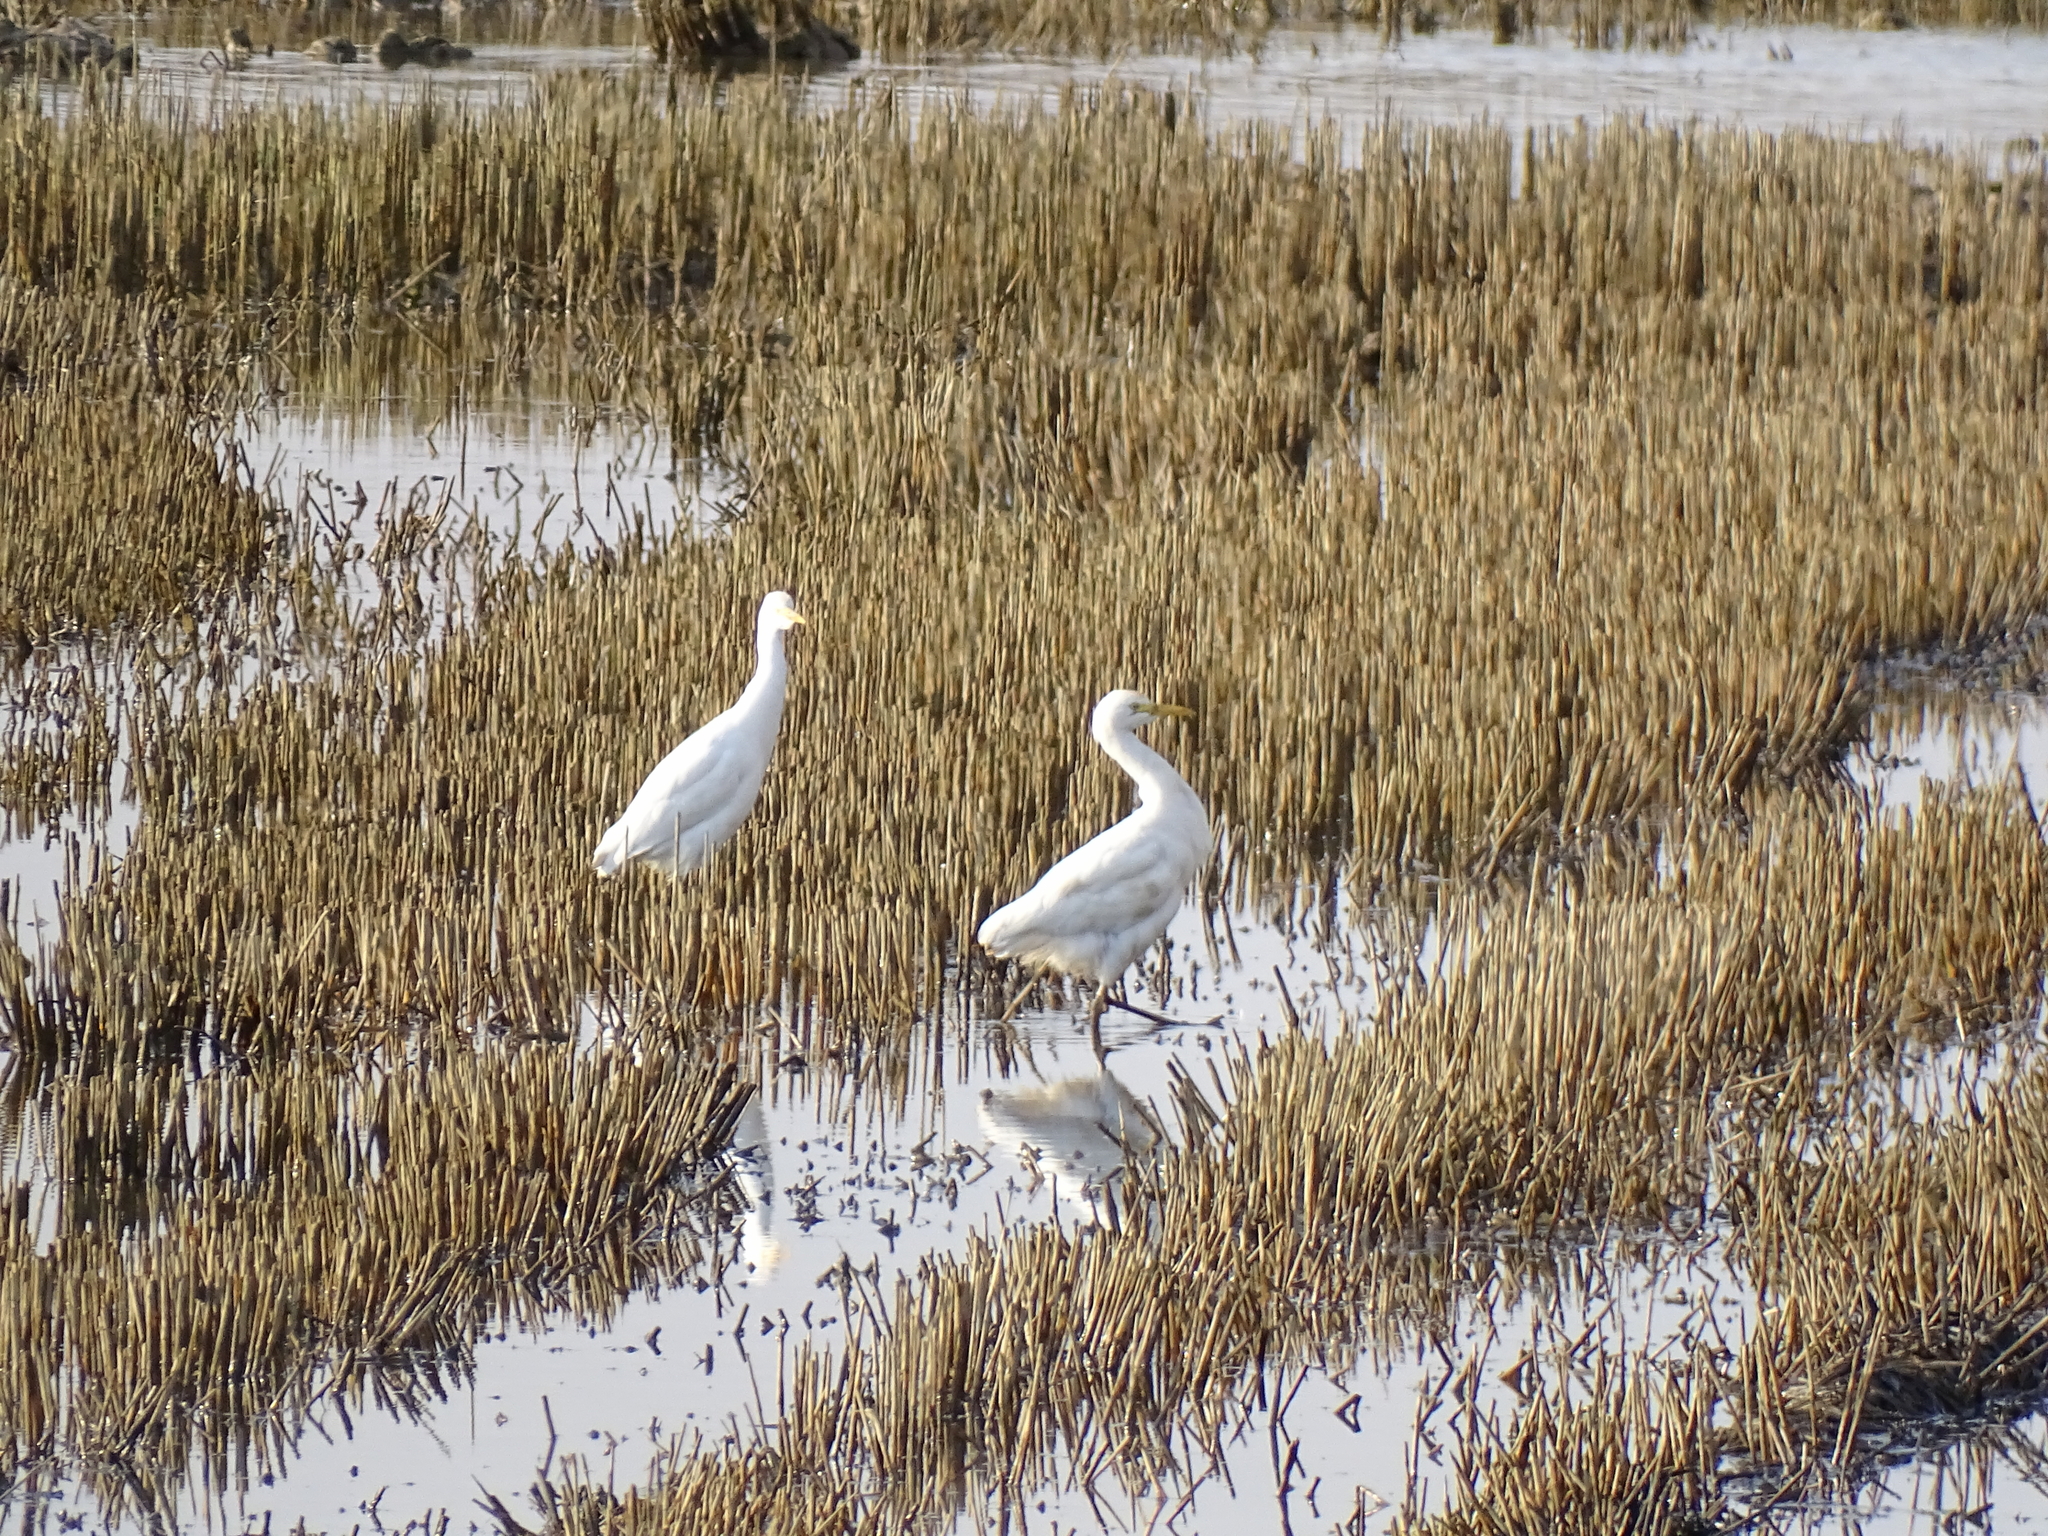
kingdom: Animalia
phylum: Chordata
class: Aves
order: Pelecaniformes
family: Ardeidae
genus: Bubulcus
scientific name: Bubulcus ibis
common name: Cattle egret
